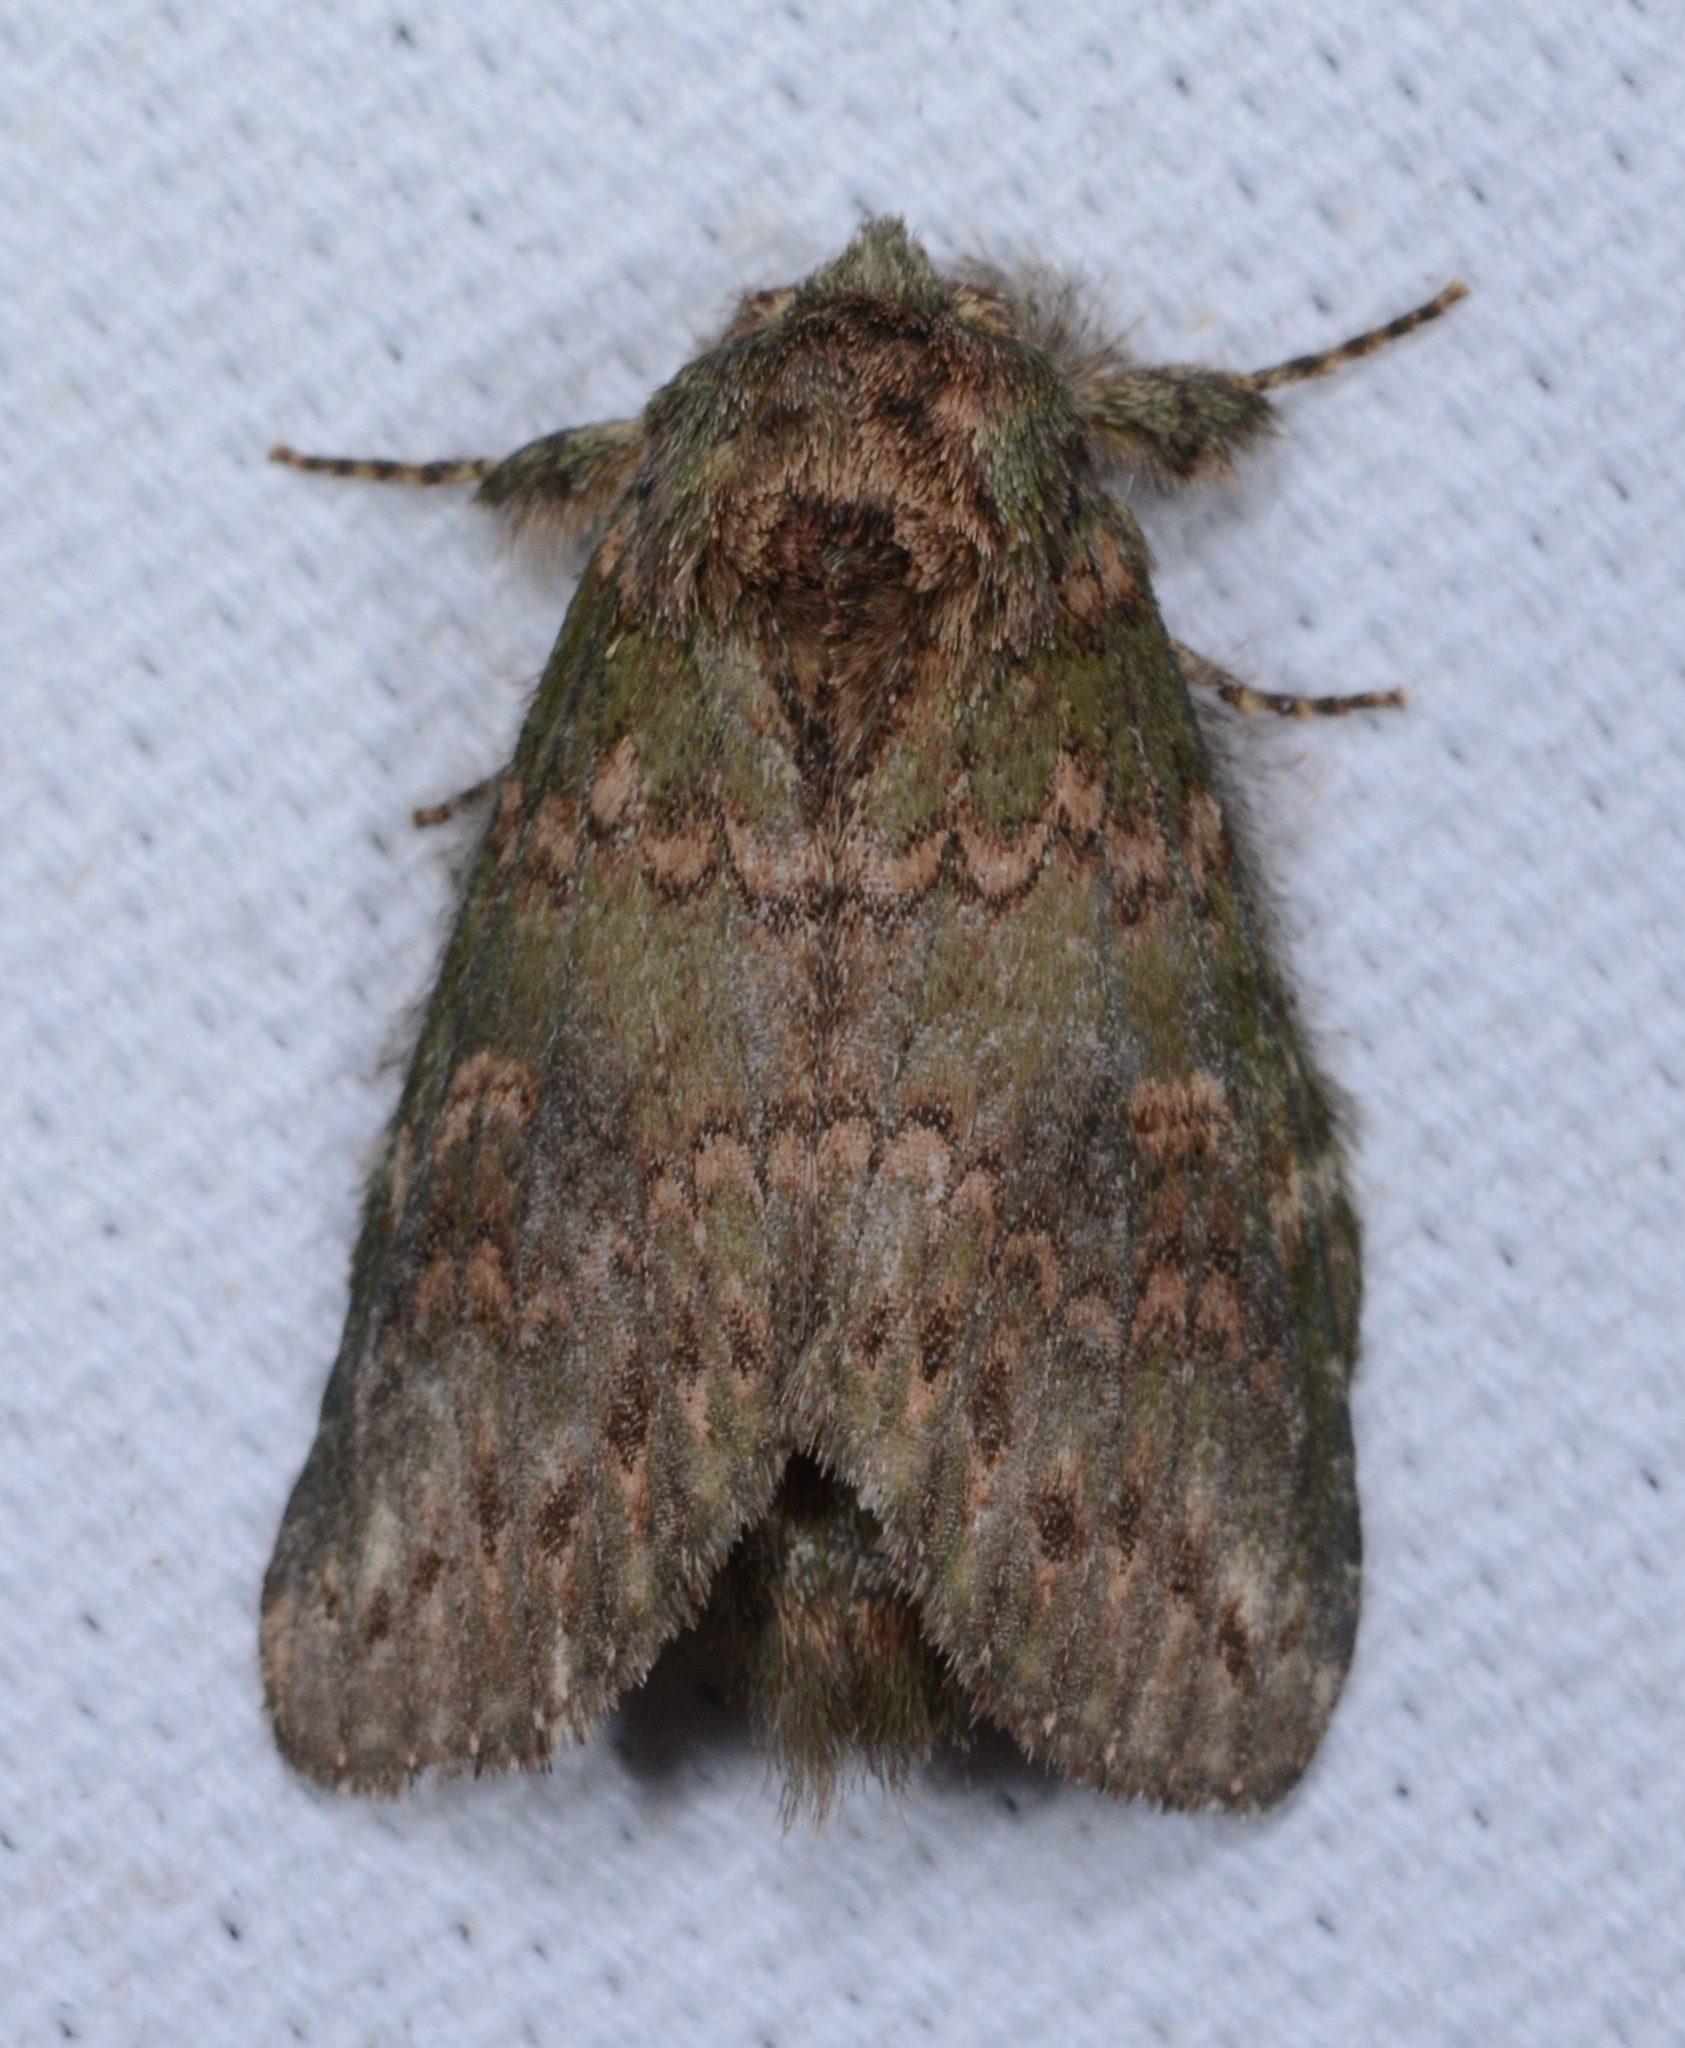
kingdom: Animalia
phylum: Arthropoda
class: Insecta
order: Lepidoptera
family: Notodontidae
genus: Disphragis
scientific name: Disphragis Cecrita biundata
